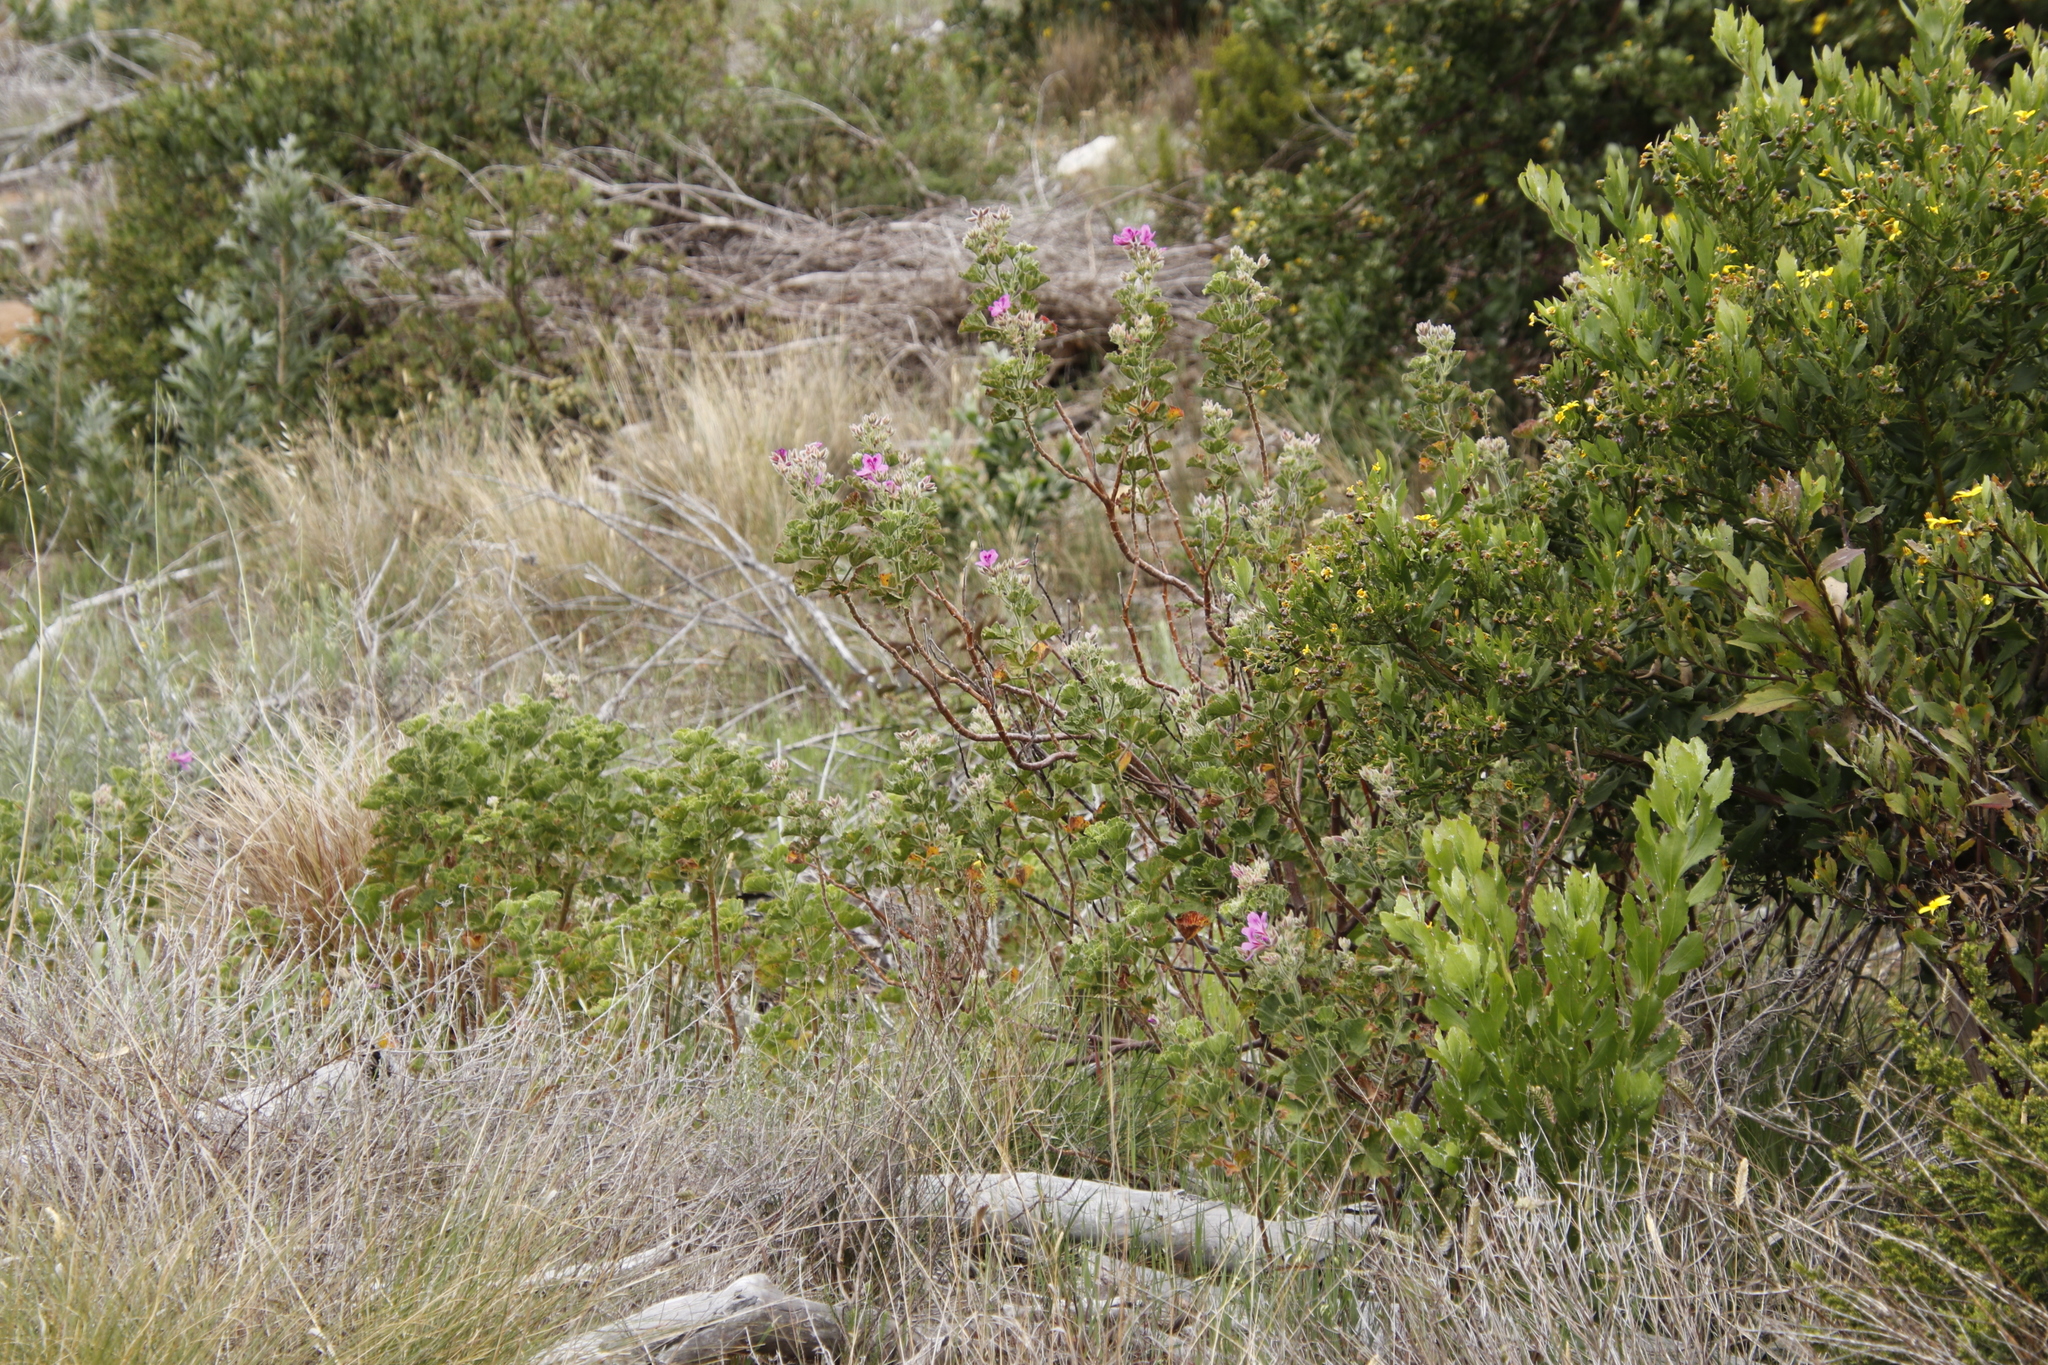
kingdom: Plantae
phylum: Tracheophyta
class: Magnoliopsida
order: Geraniales
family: Geraniaceae
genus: Pelargonium
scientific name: Pelargonium cucullatum
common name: Tree pelargonium
